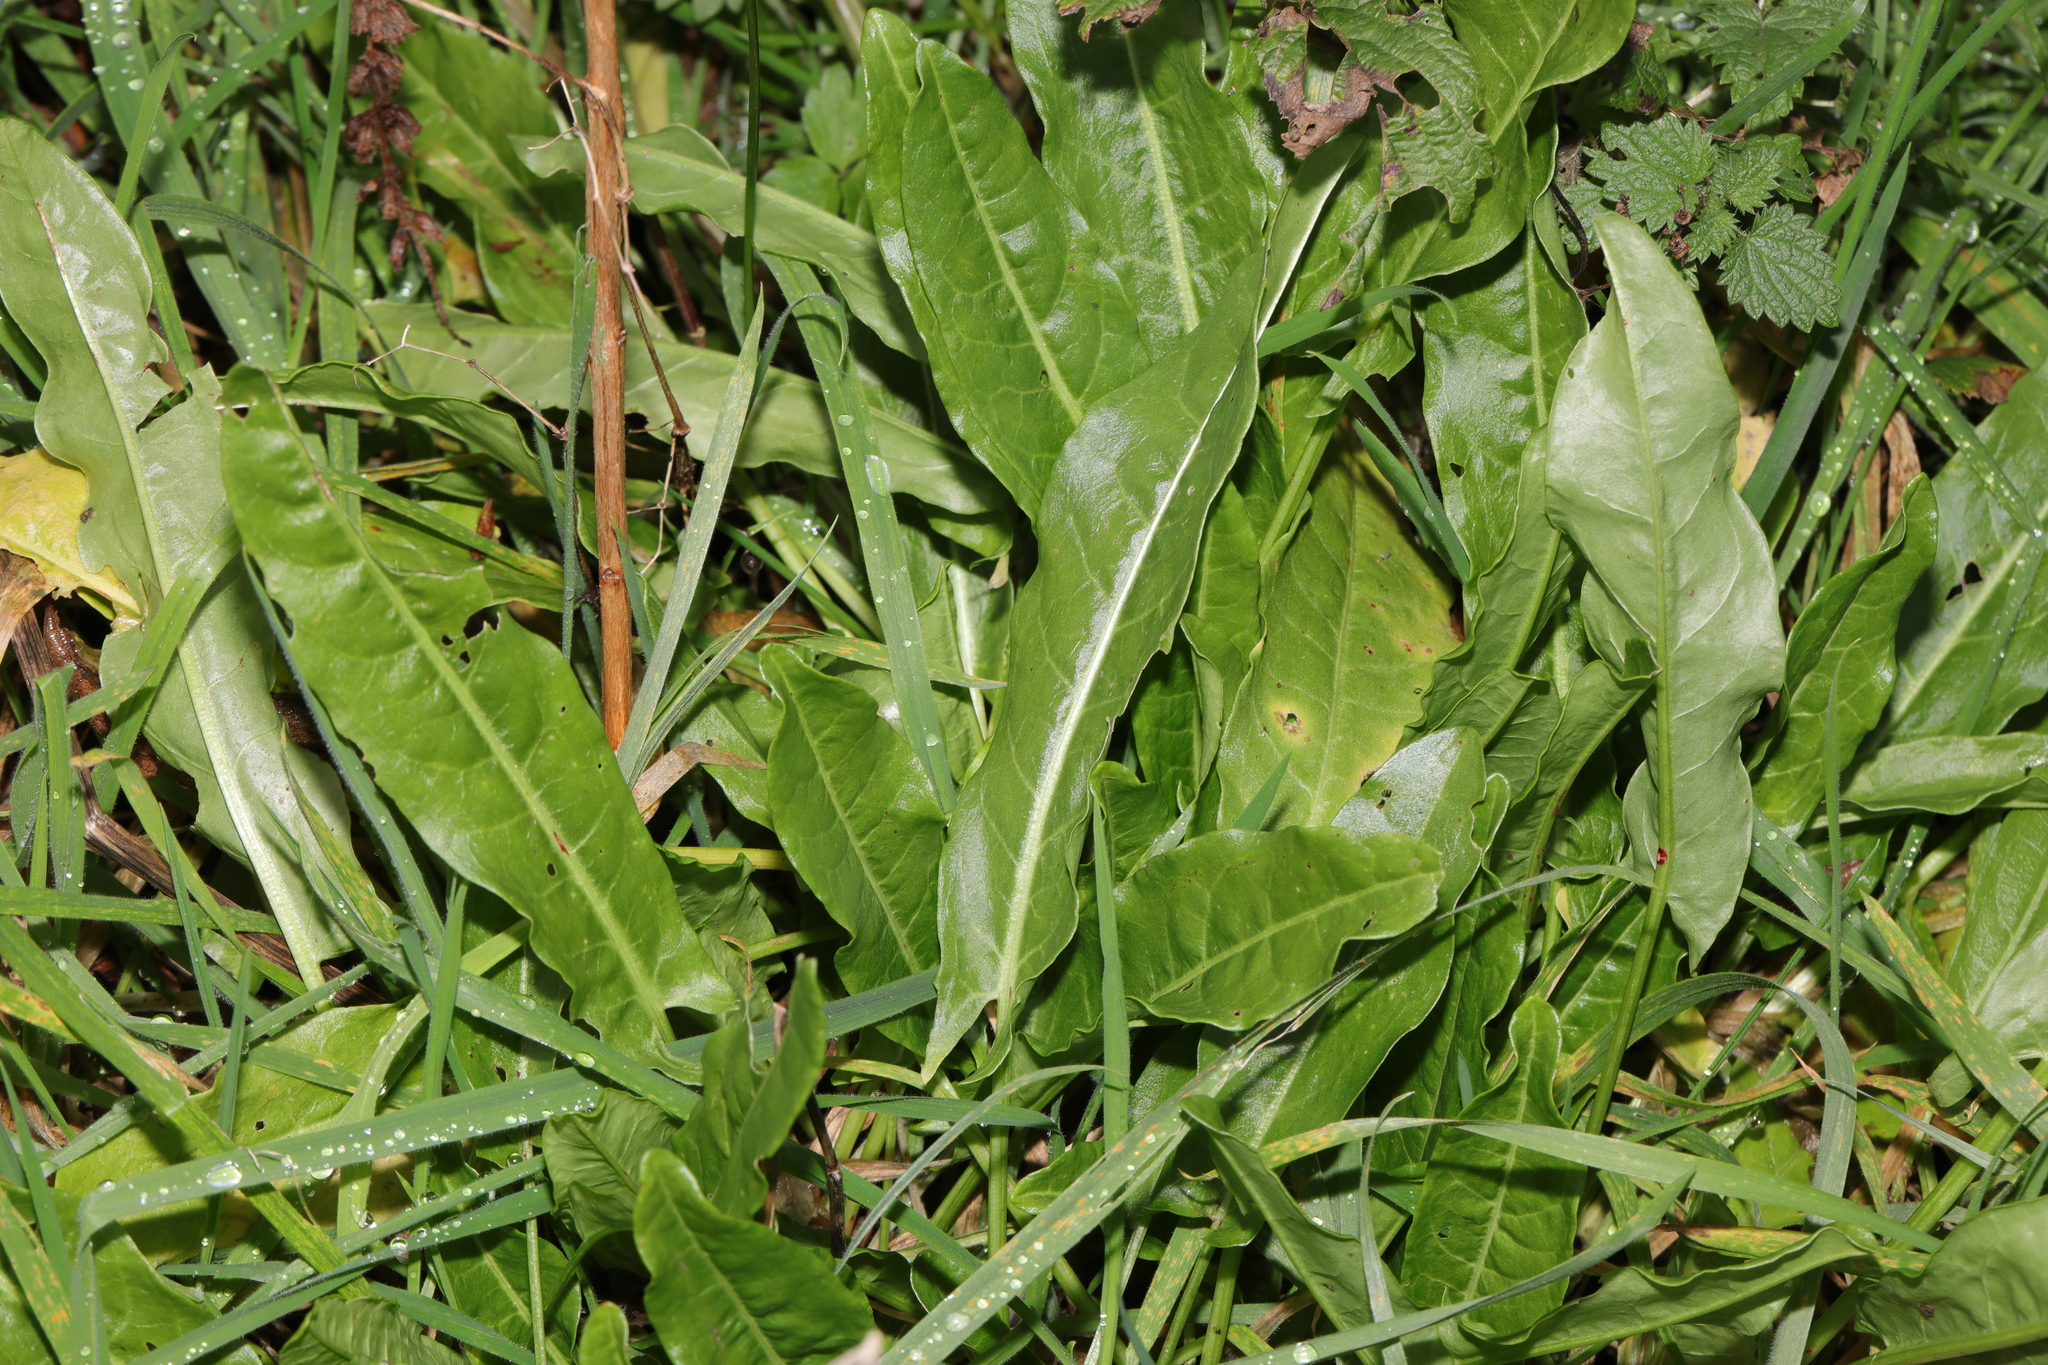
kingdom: Plantae
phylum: Tracheophyta
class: Magnoliopsida
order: Caryophyllales
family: Polygonaceae
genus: Rumex
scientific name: Rumex acetosa
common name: Garden sorrel
